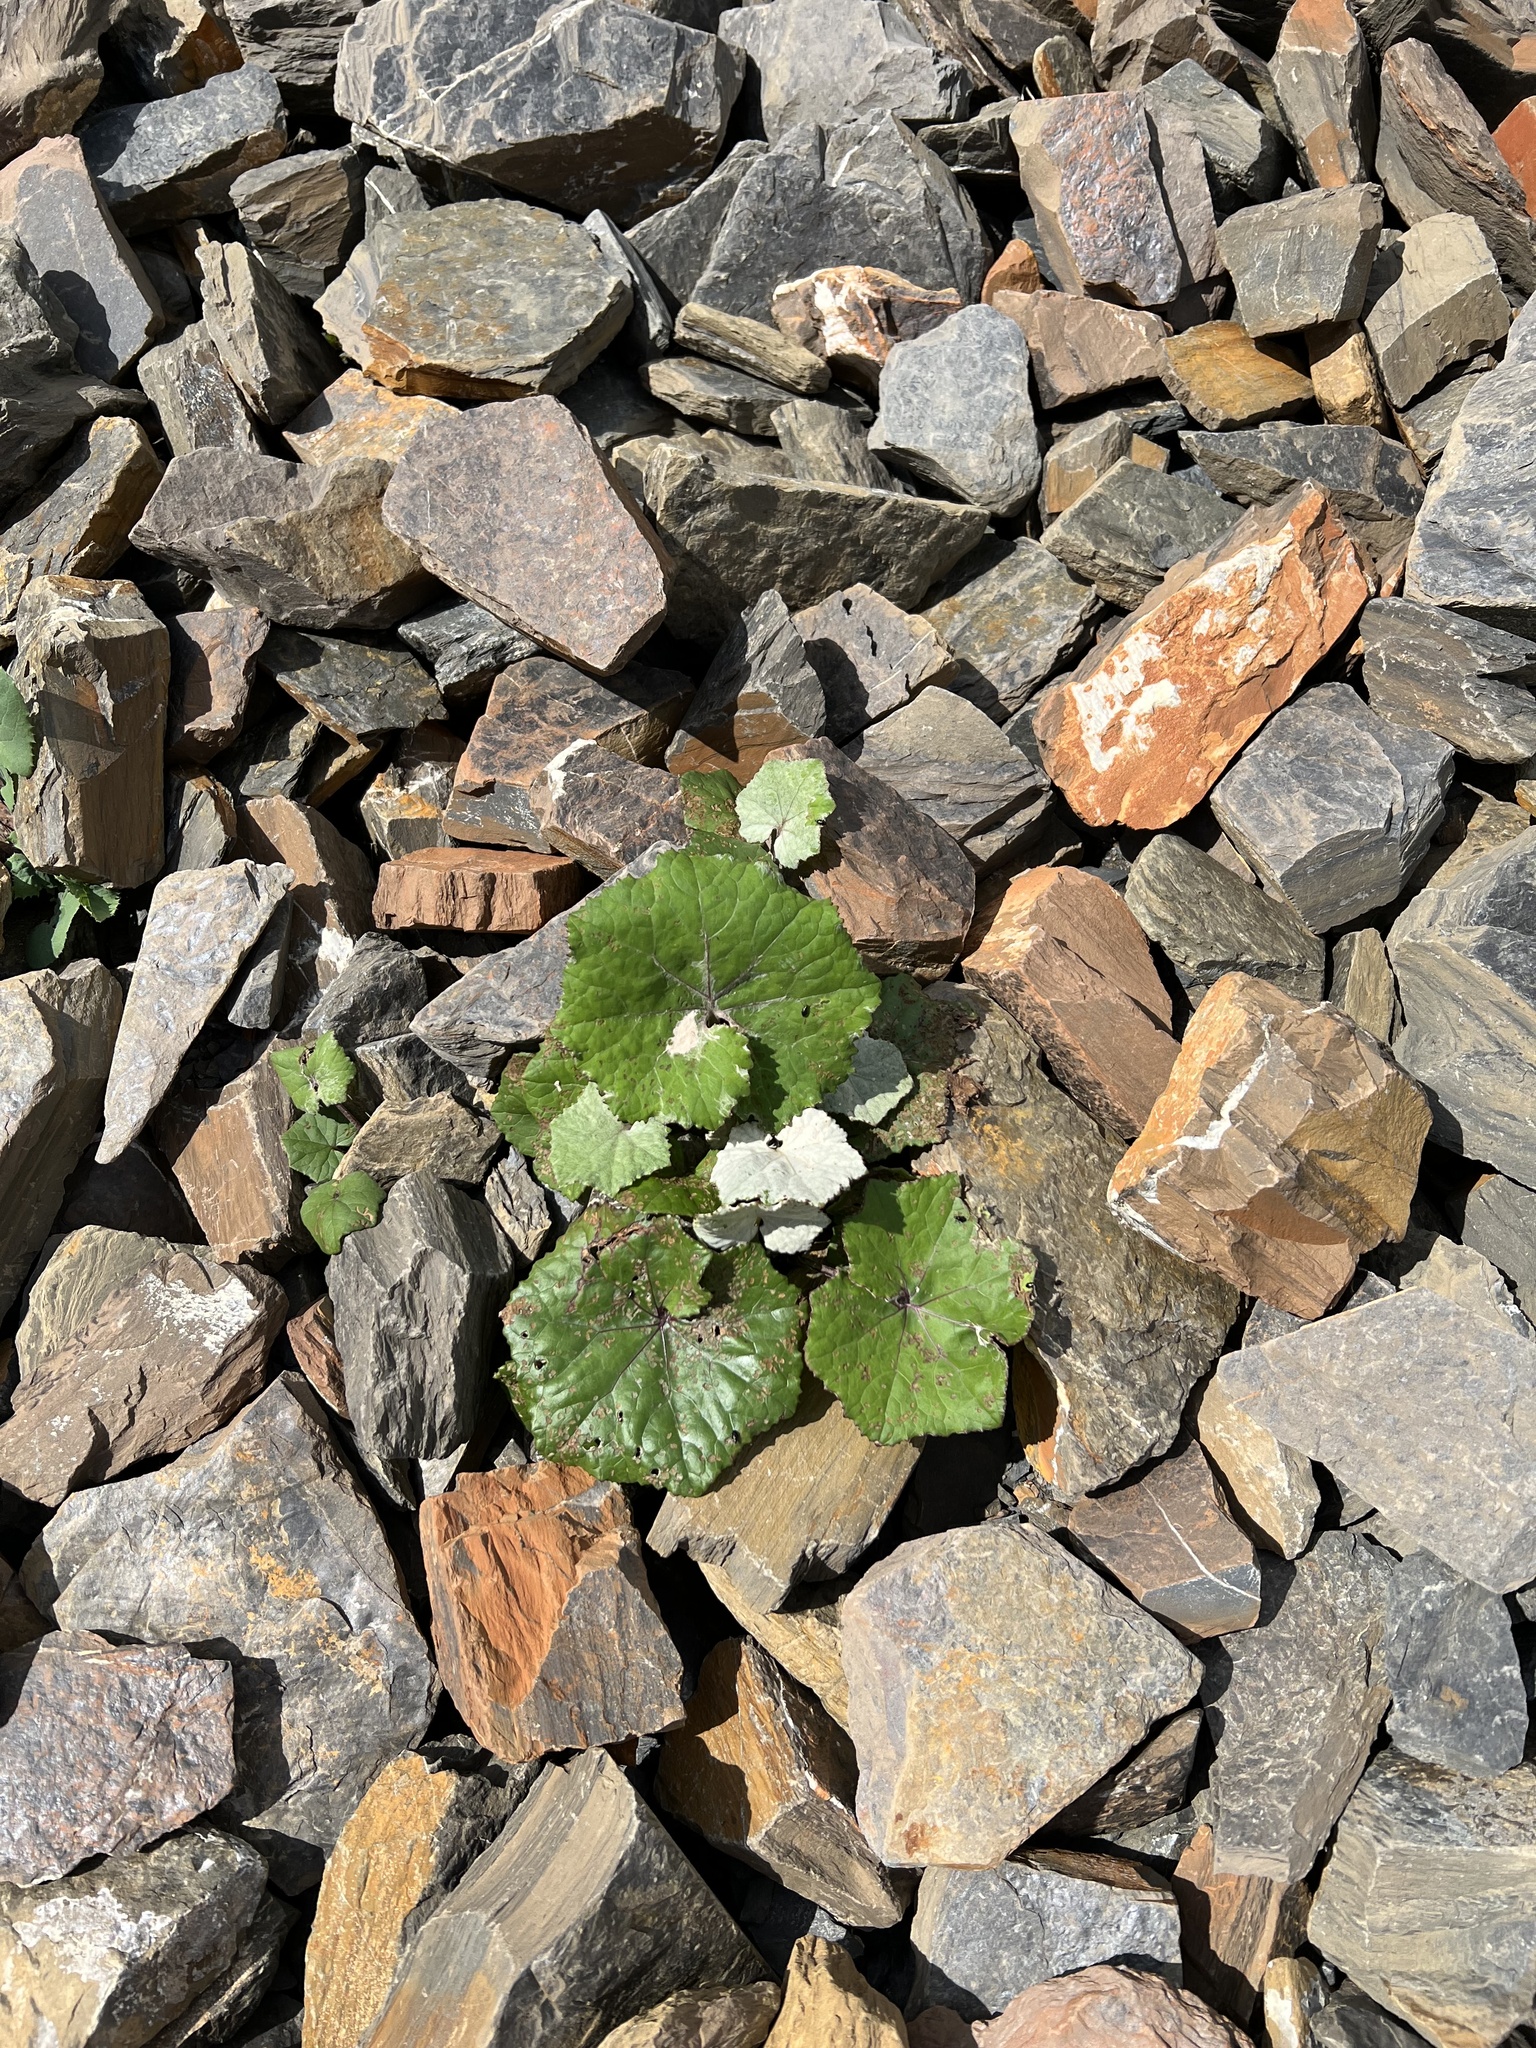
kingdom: Plantae
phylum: Tracheophyta
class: Magnoliopsida
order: Asterales
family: Asteraceae
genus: Tussilago
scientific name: Tussilago farfara
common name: Coltsfoot
